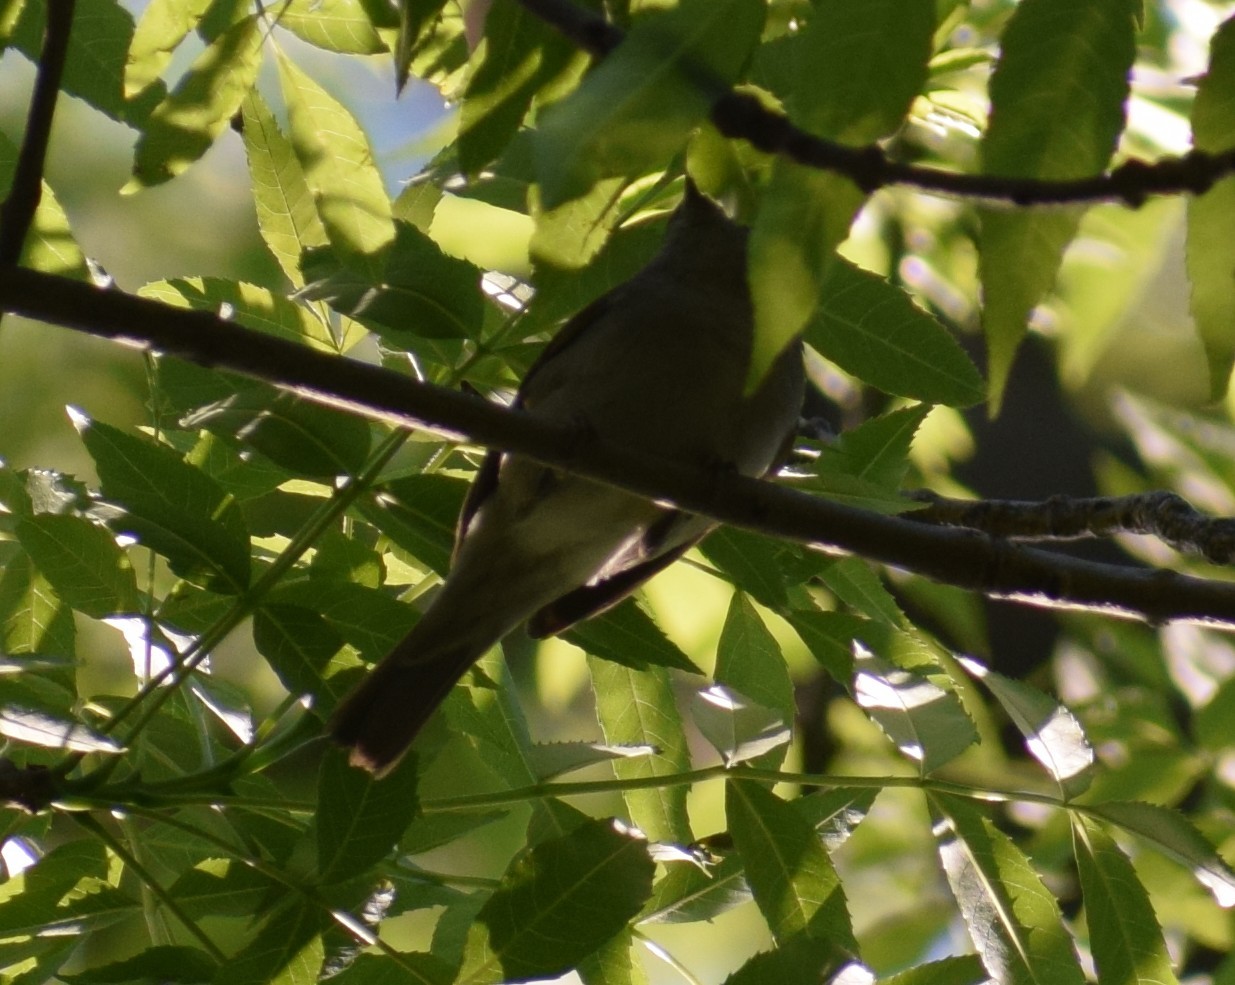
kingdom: Animalia
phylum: Chordata
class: Aves
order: Passeriformes
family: Sylviidae
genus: Sylvia
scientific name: Sylvia atricapilla
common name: Eurasian blackcap
